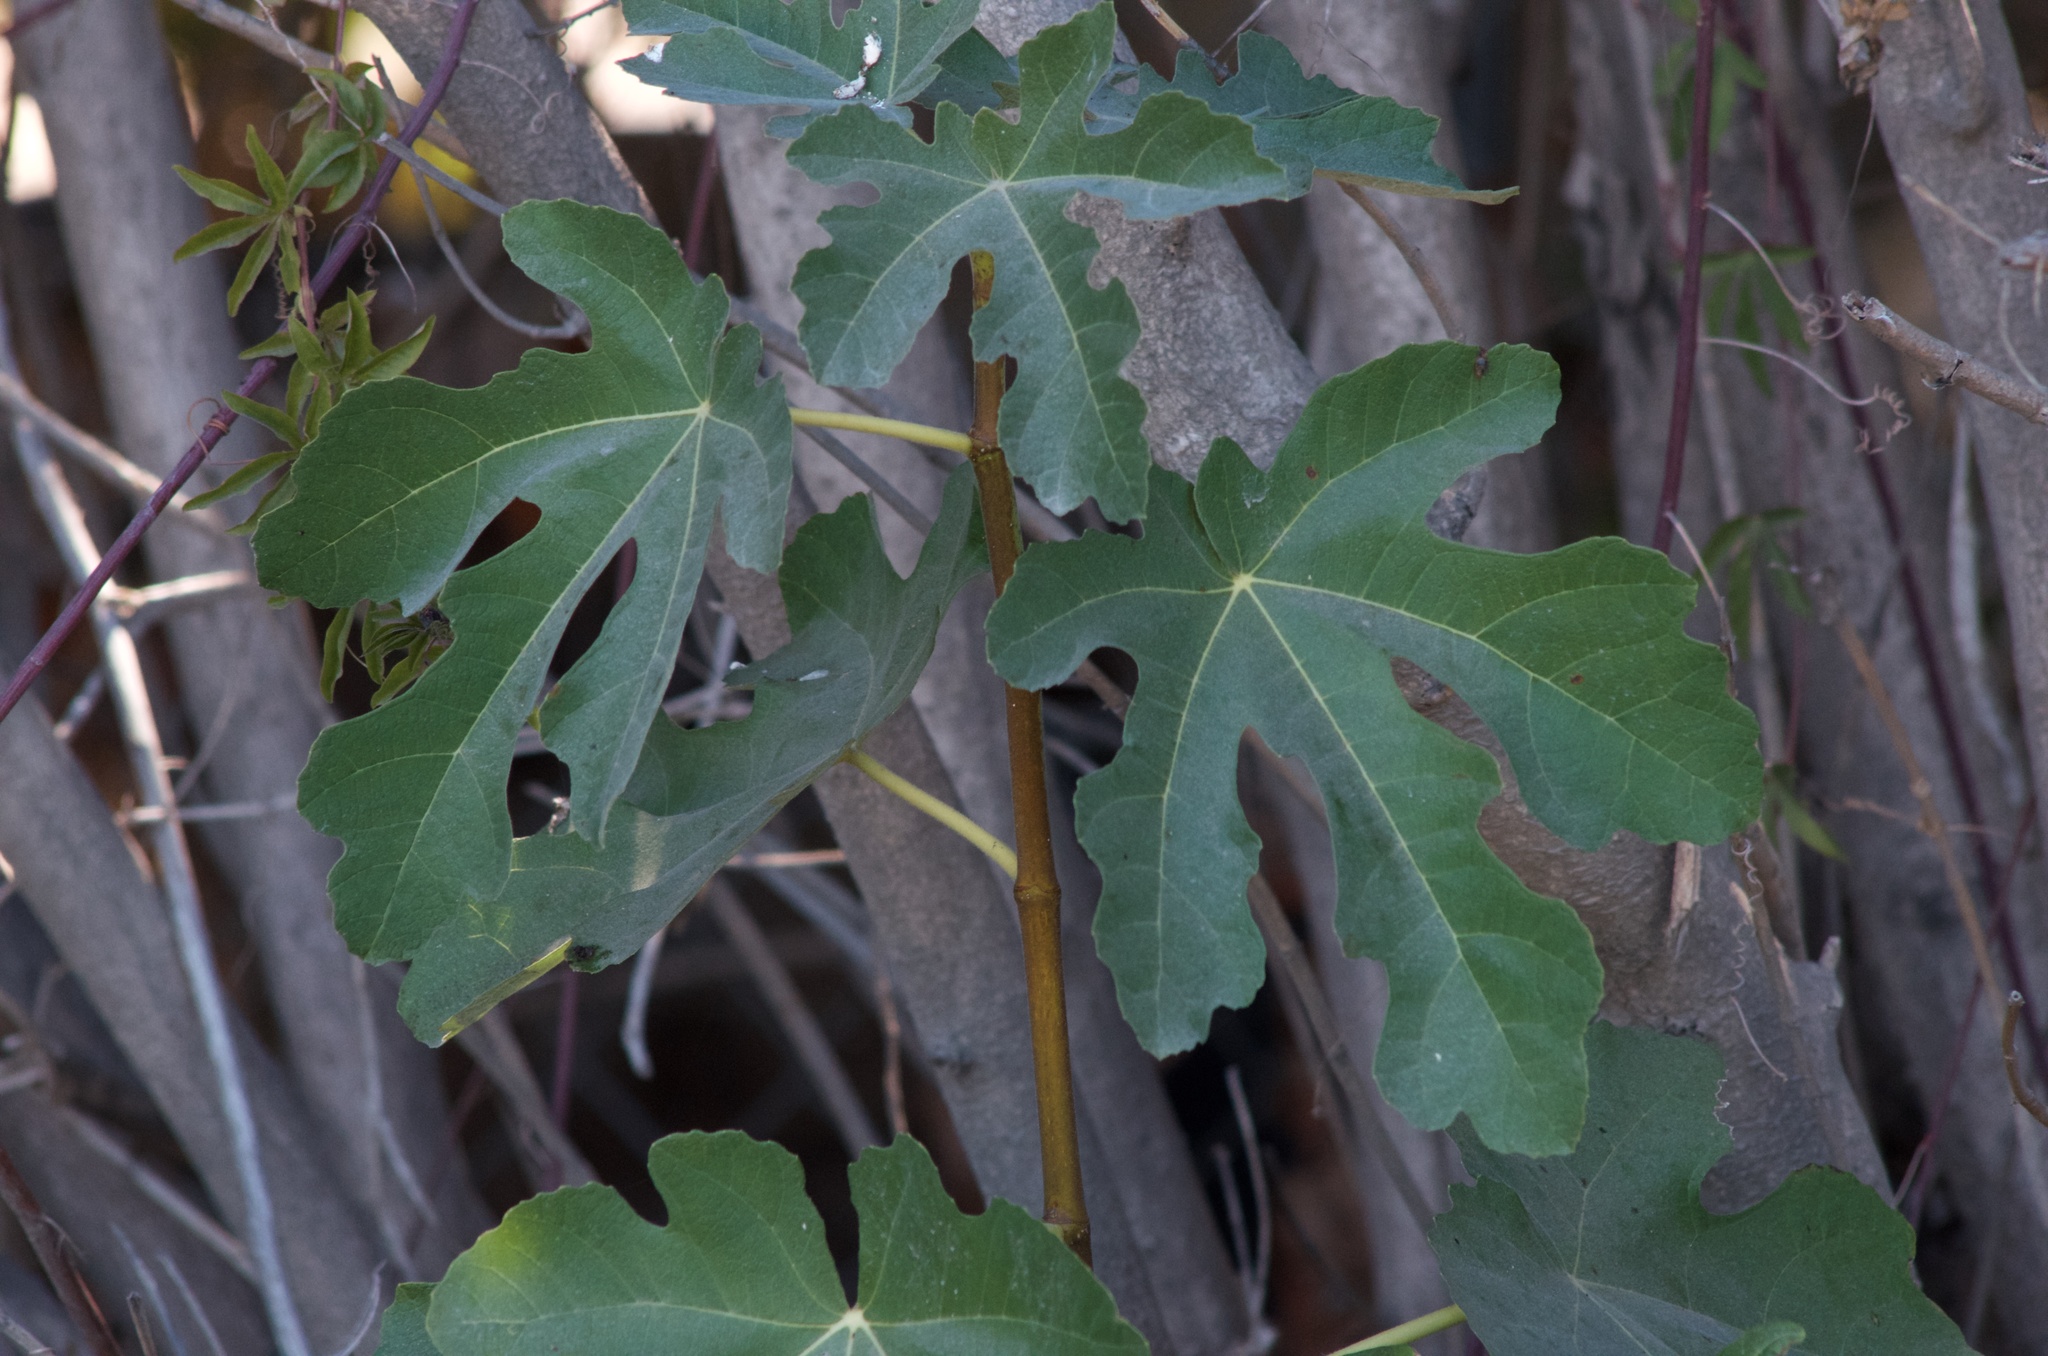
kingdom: Plantae
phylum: Tracheophyta
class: Magnoliopsida
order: Rosales
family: Moraceae
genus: Ficus
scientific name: Ficus carica
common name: Fig
